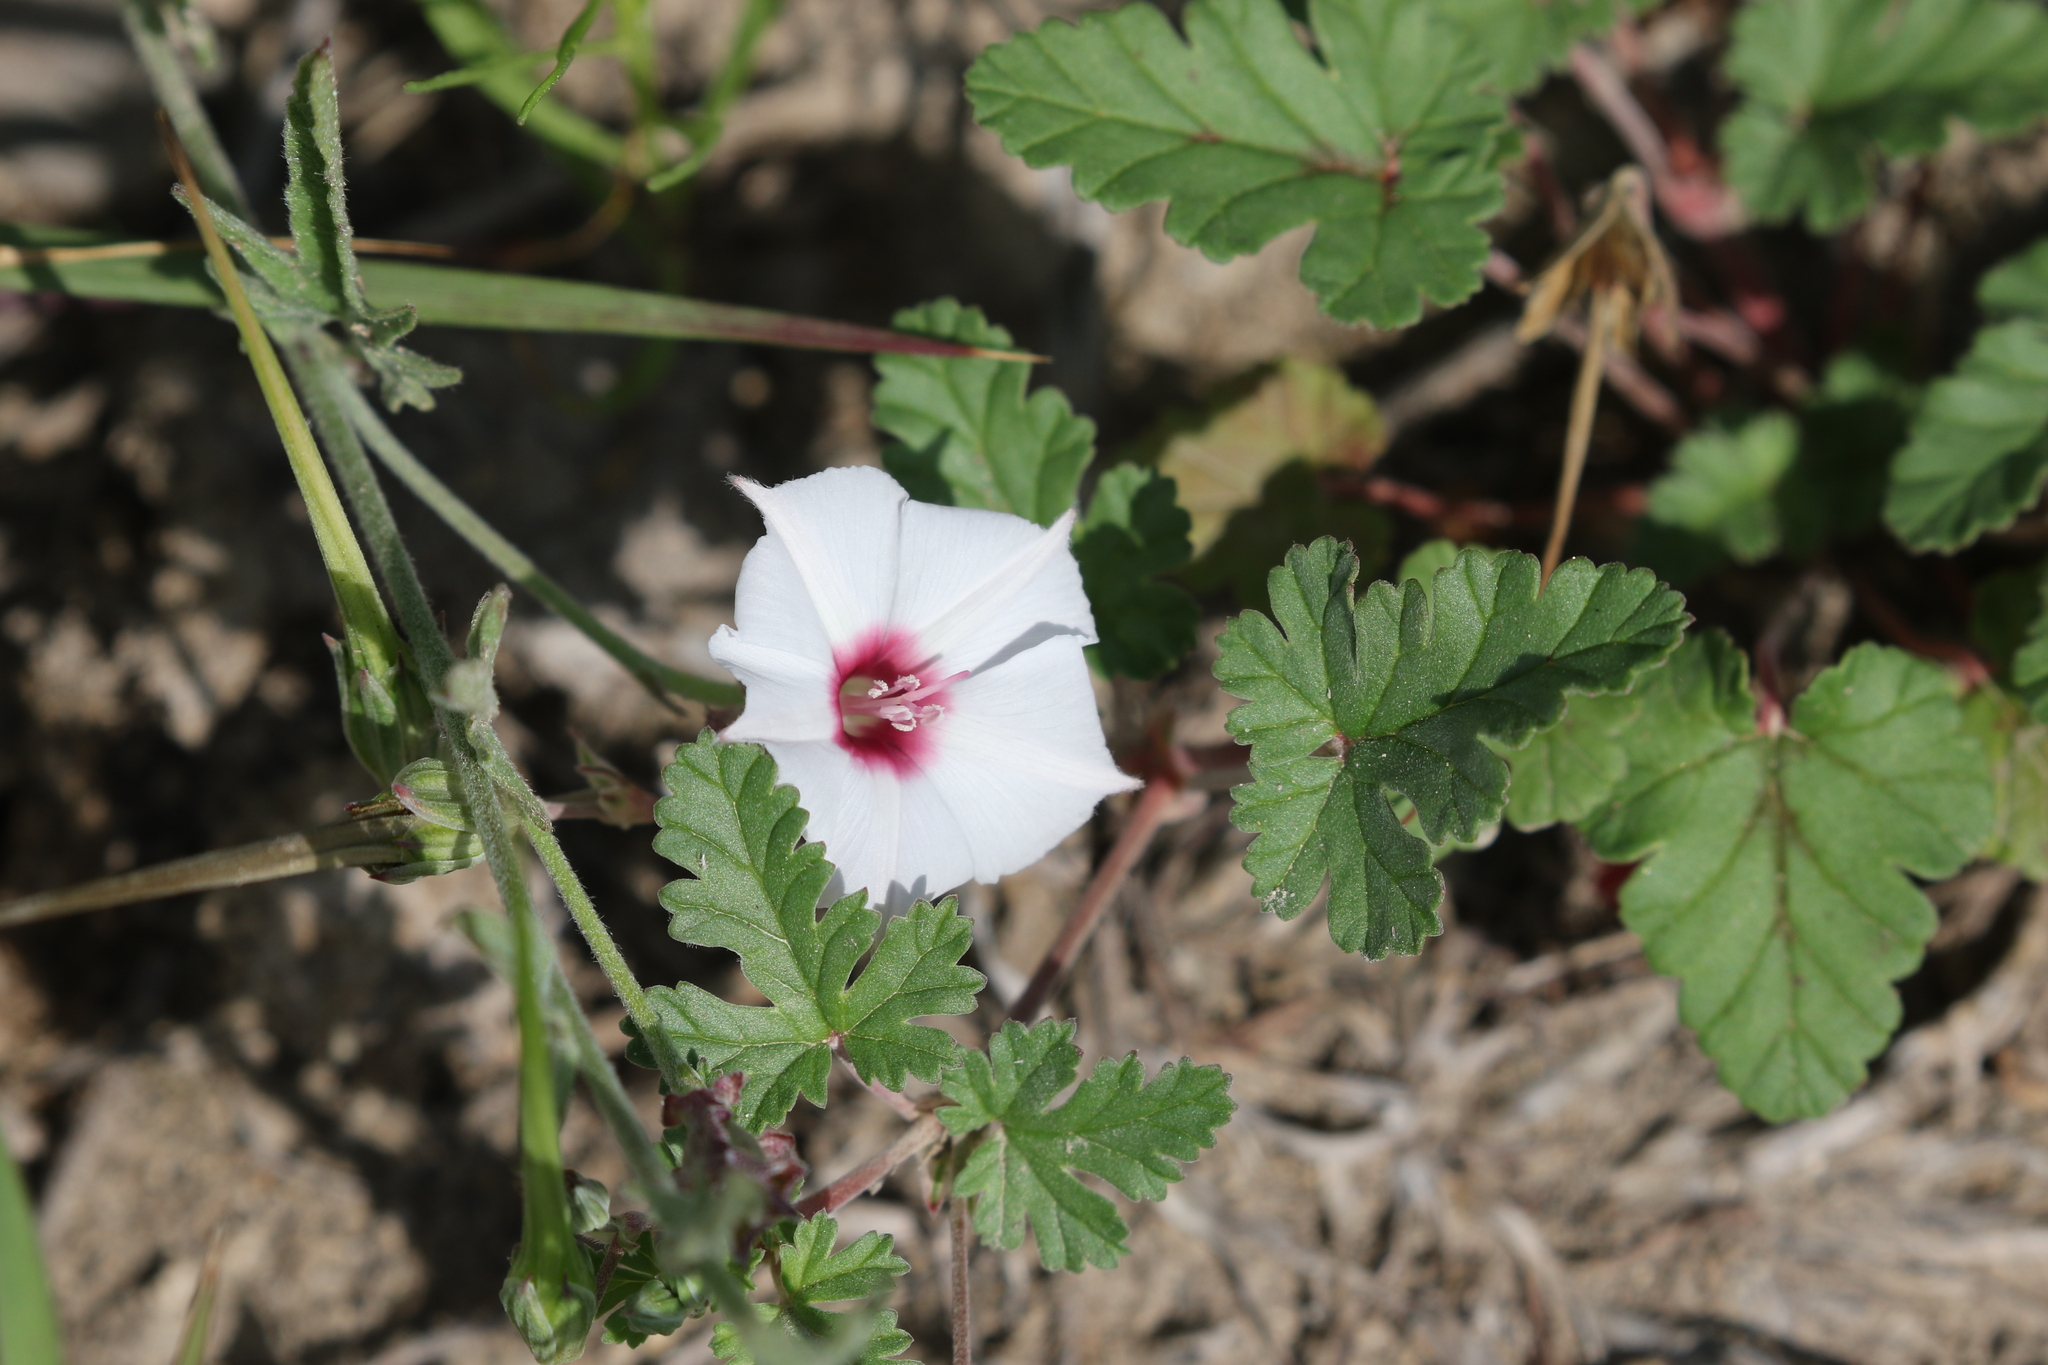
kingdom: Plantae
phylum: Tracheophyta
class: Magnoliopsida
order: Solanales
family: Convolvulaceae
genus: Convolvulus
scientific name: Convolvulus equitans
